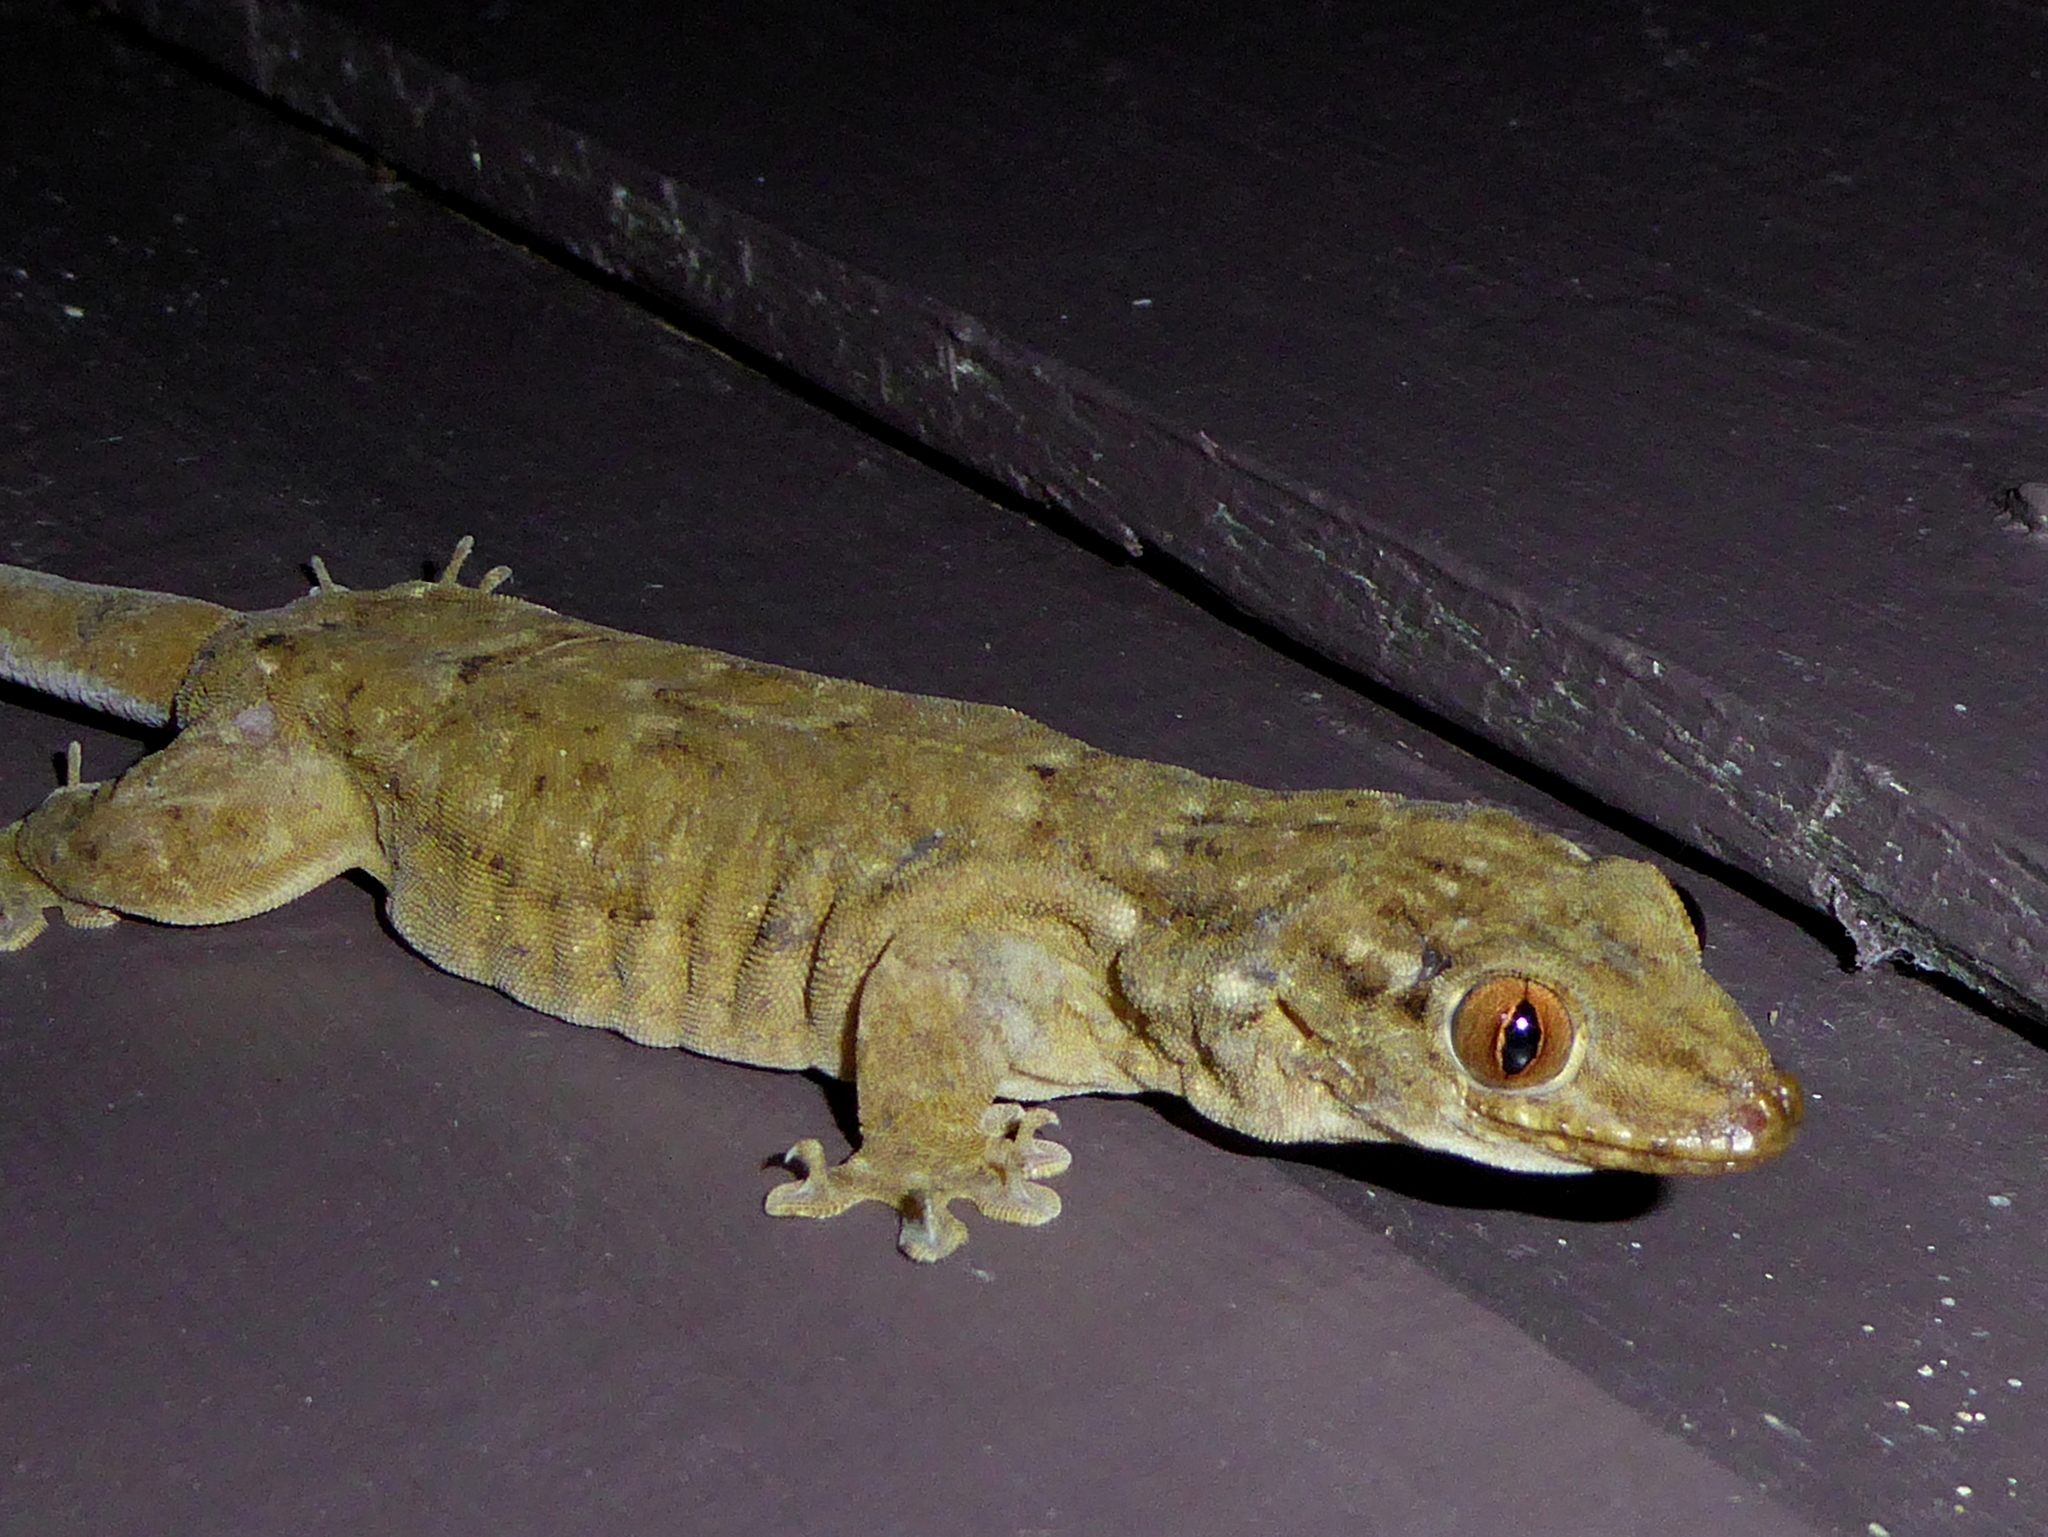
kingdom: Animalia
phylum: Chordata
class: Squamata
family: Gekkonidae
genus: Gehyra
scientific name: Gehyra oceanica
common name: Pacific dtella
